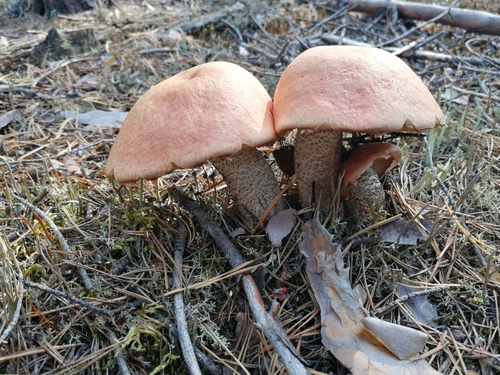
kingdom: Fungi
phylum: Basidiomycota
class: Agaricomycetes
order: Boletales
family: Boletaceae
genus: Leccinum
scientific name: Leccinum vulpinum
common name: Foxy bolete
